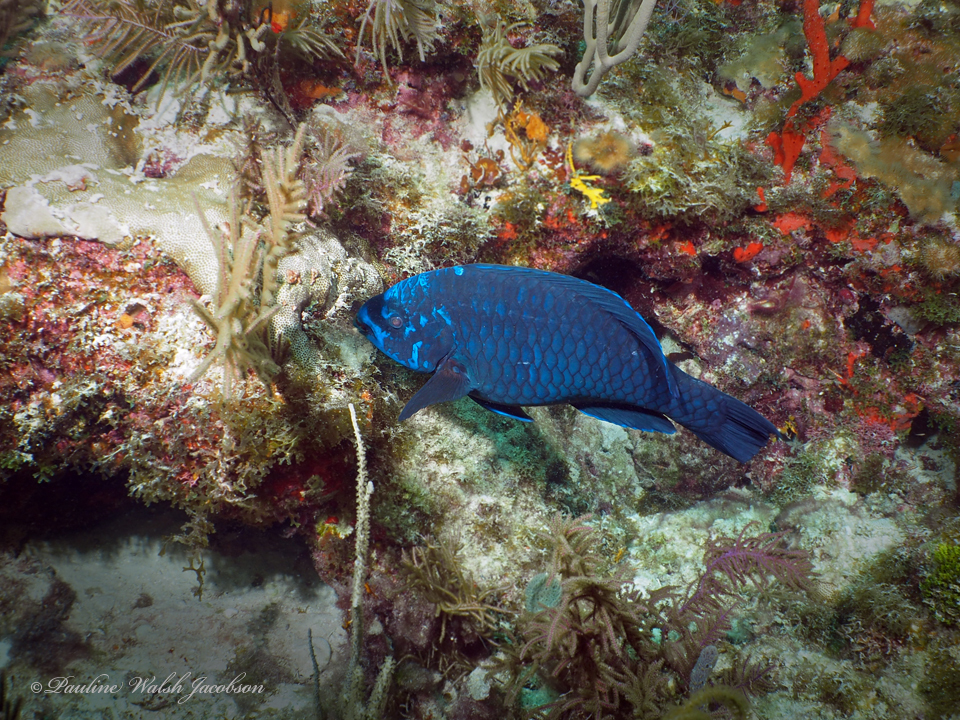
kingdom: Animalia
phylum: Chordata
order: Perciformes
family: Scaridae
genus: Scarus
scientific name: Scarus coelestinus
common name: Midnight parrotfish
